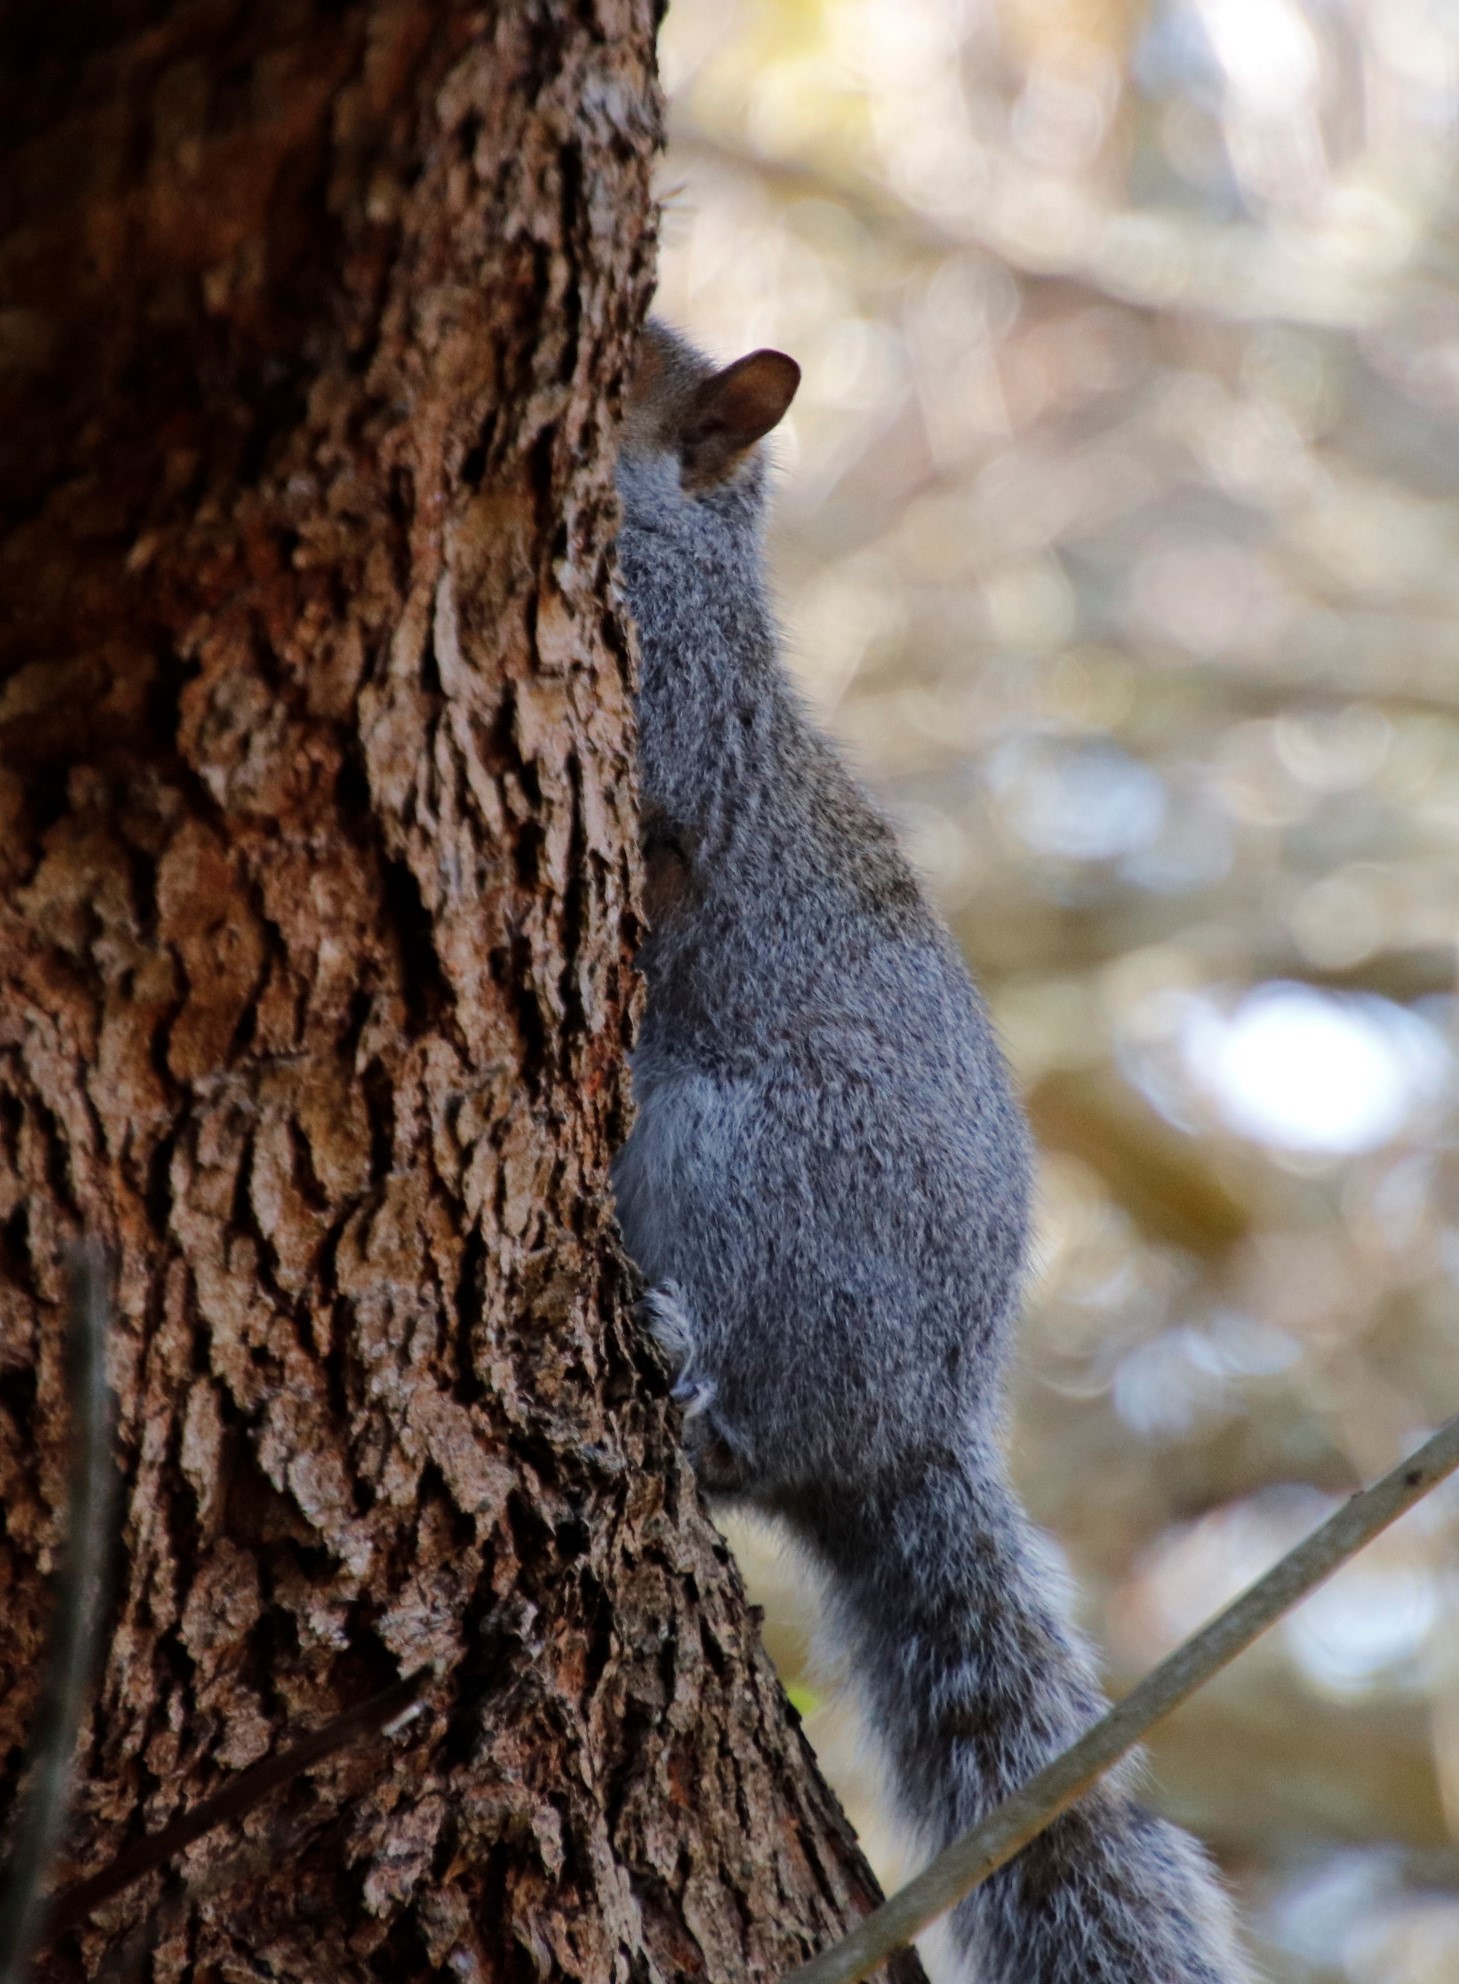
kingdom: Animalia
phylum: Chordata
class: Mammalia
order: Rodentia
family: Sciuridae
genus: Sciurus
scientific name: Sciurus carolinensis
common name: Eastern gray squirrel
